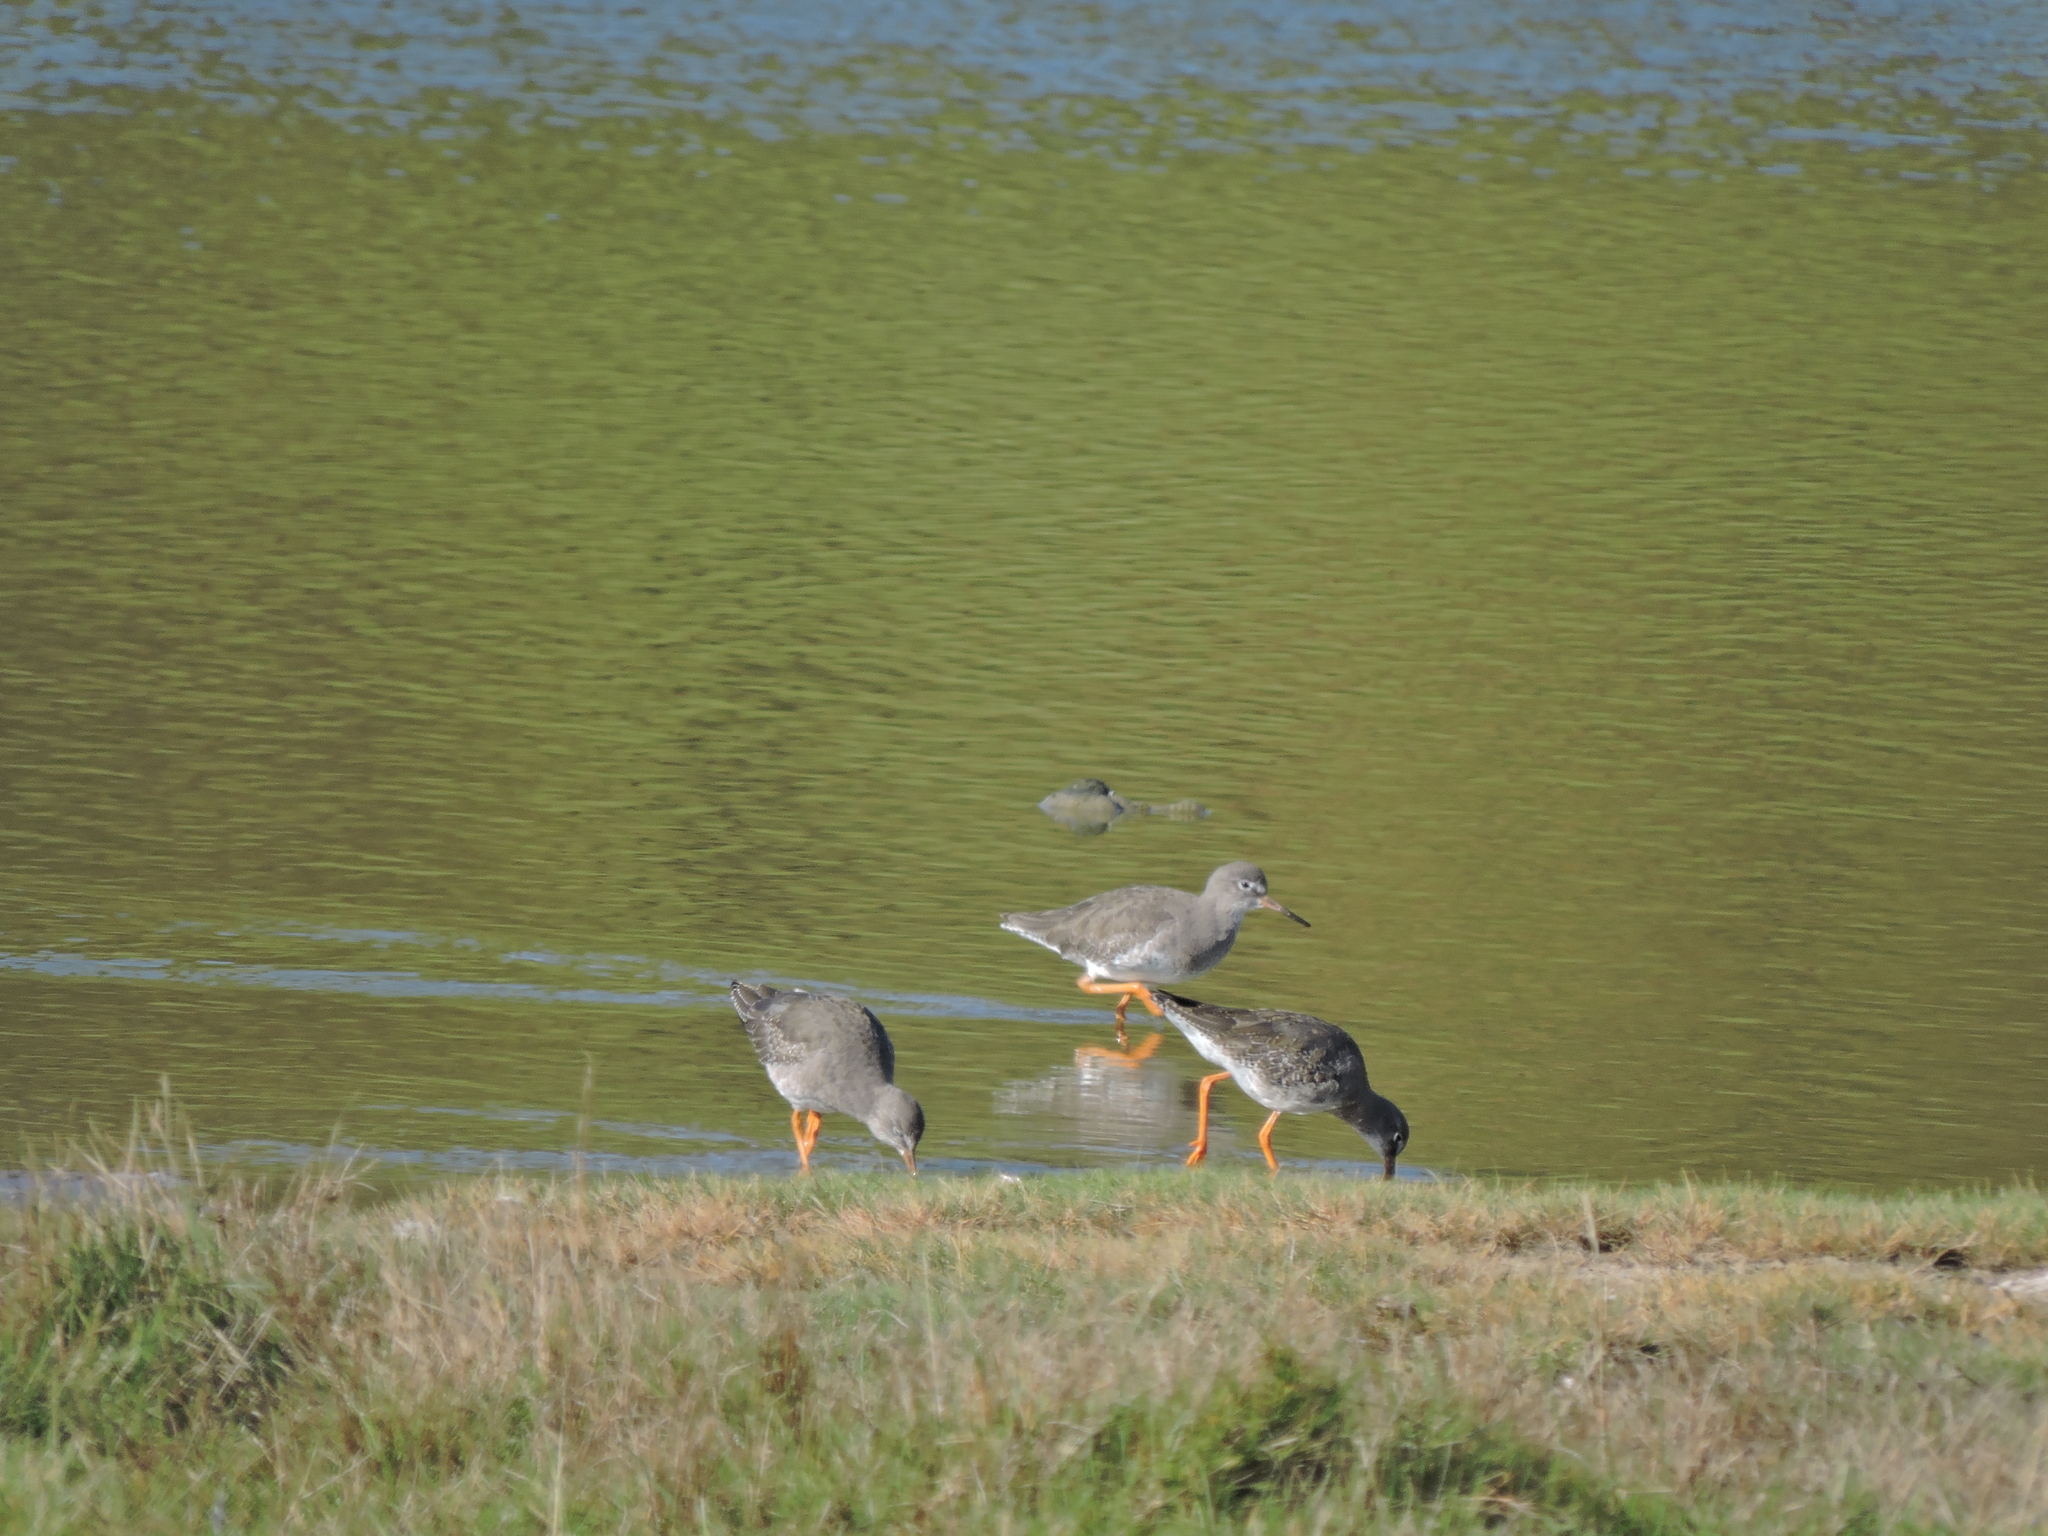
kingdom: Animalia
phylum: Chordata
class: Aves
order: Charadriiformes
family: Scolopacidae
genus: Tringa
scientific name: Tringa totanus
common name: Common redshank
